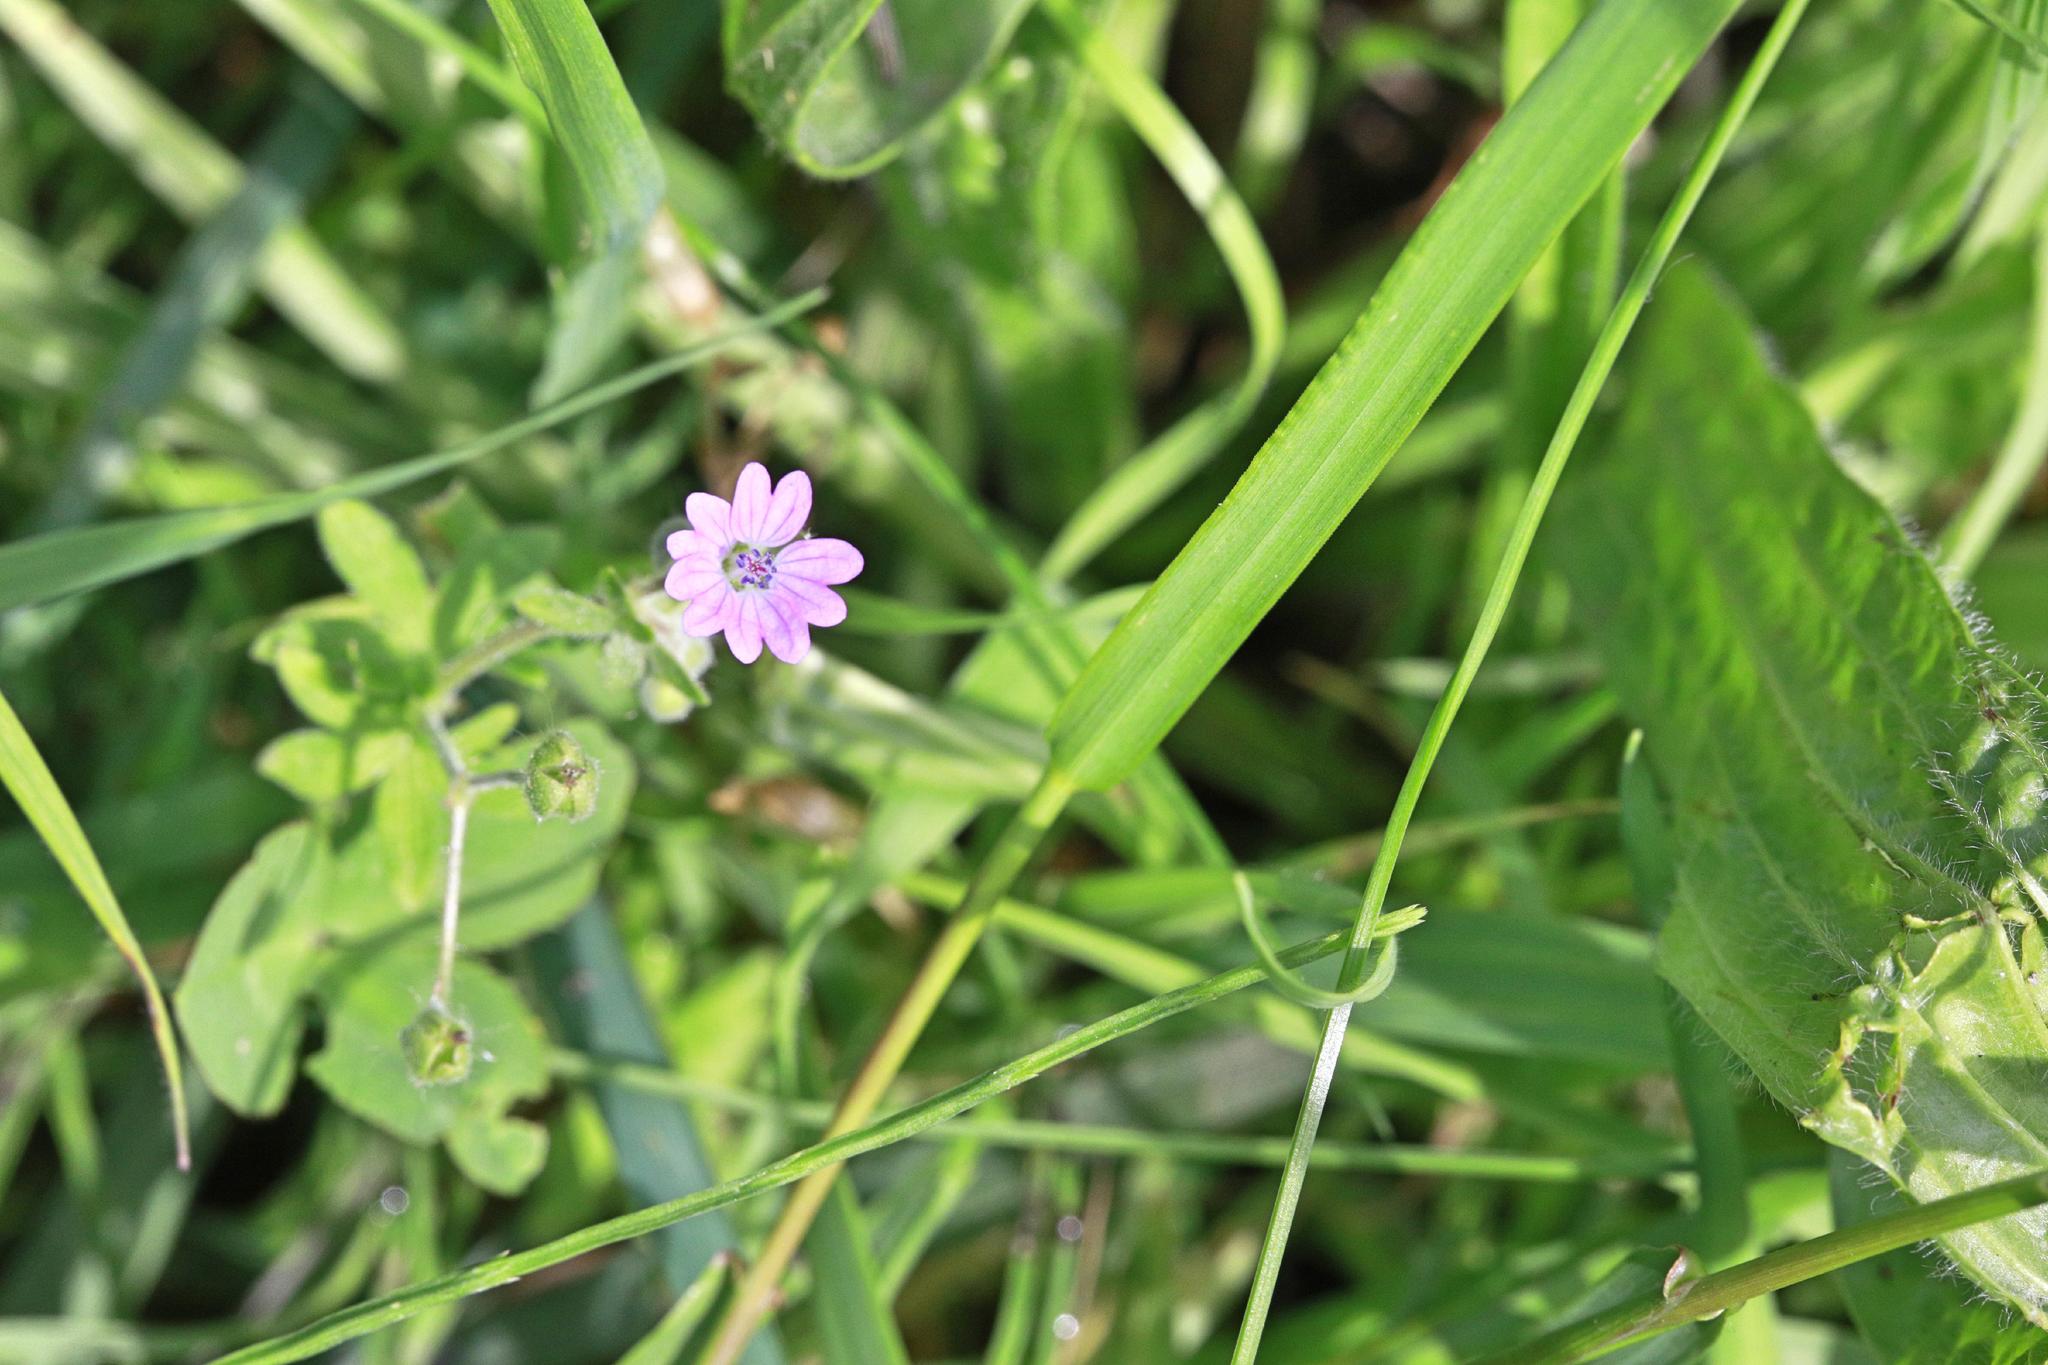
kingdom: Plantae
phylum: Tracheophyta
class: Magnoliopsida
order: Geraniales
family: Geraniaceae
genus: Geranium
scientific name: Geranium molle
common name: Dove's-foot crane's-bill
